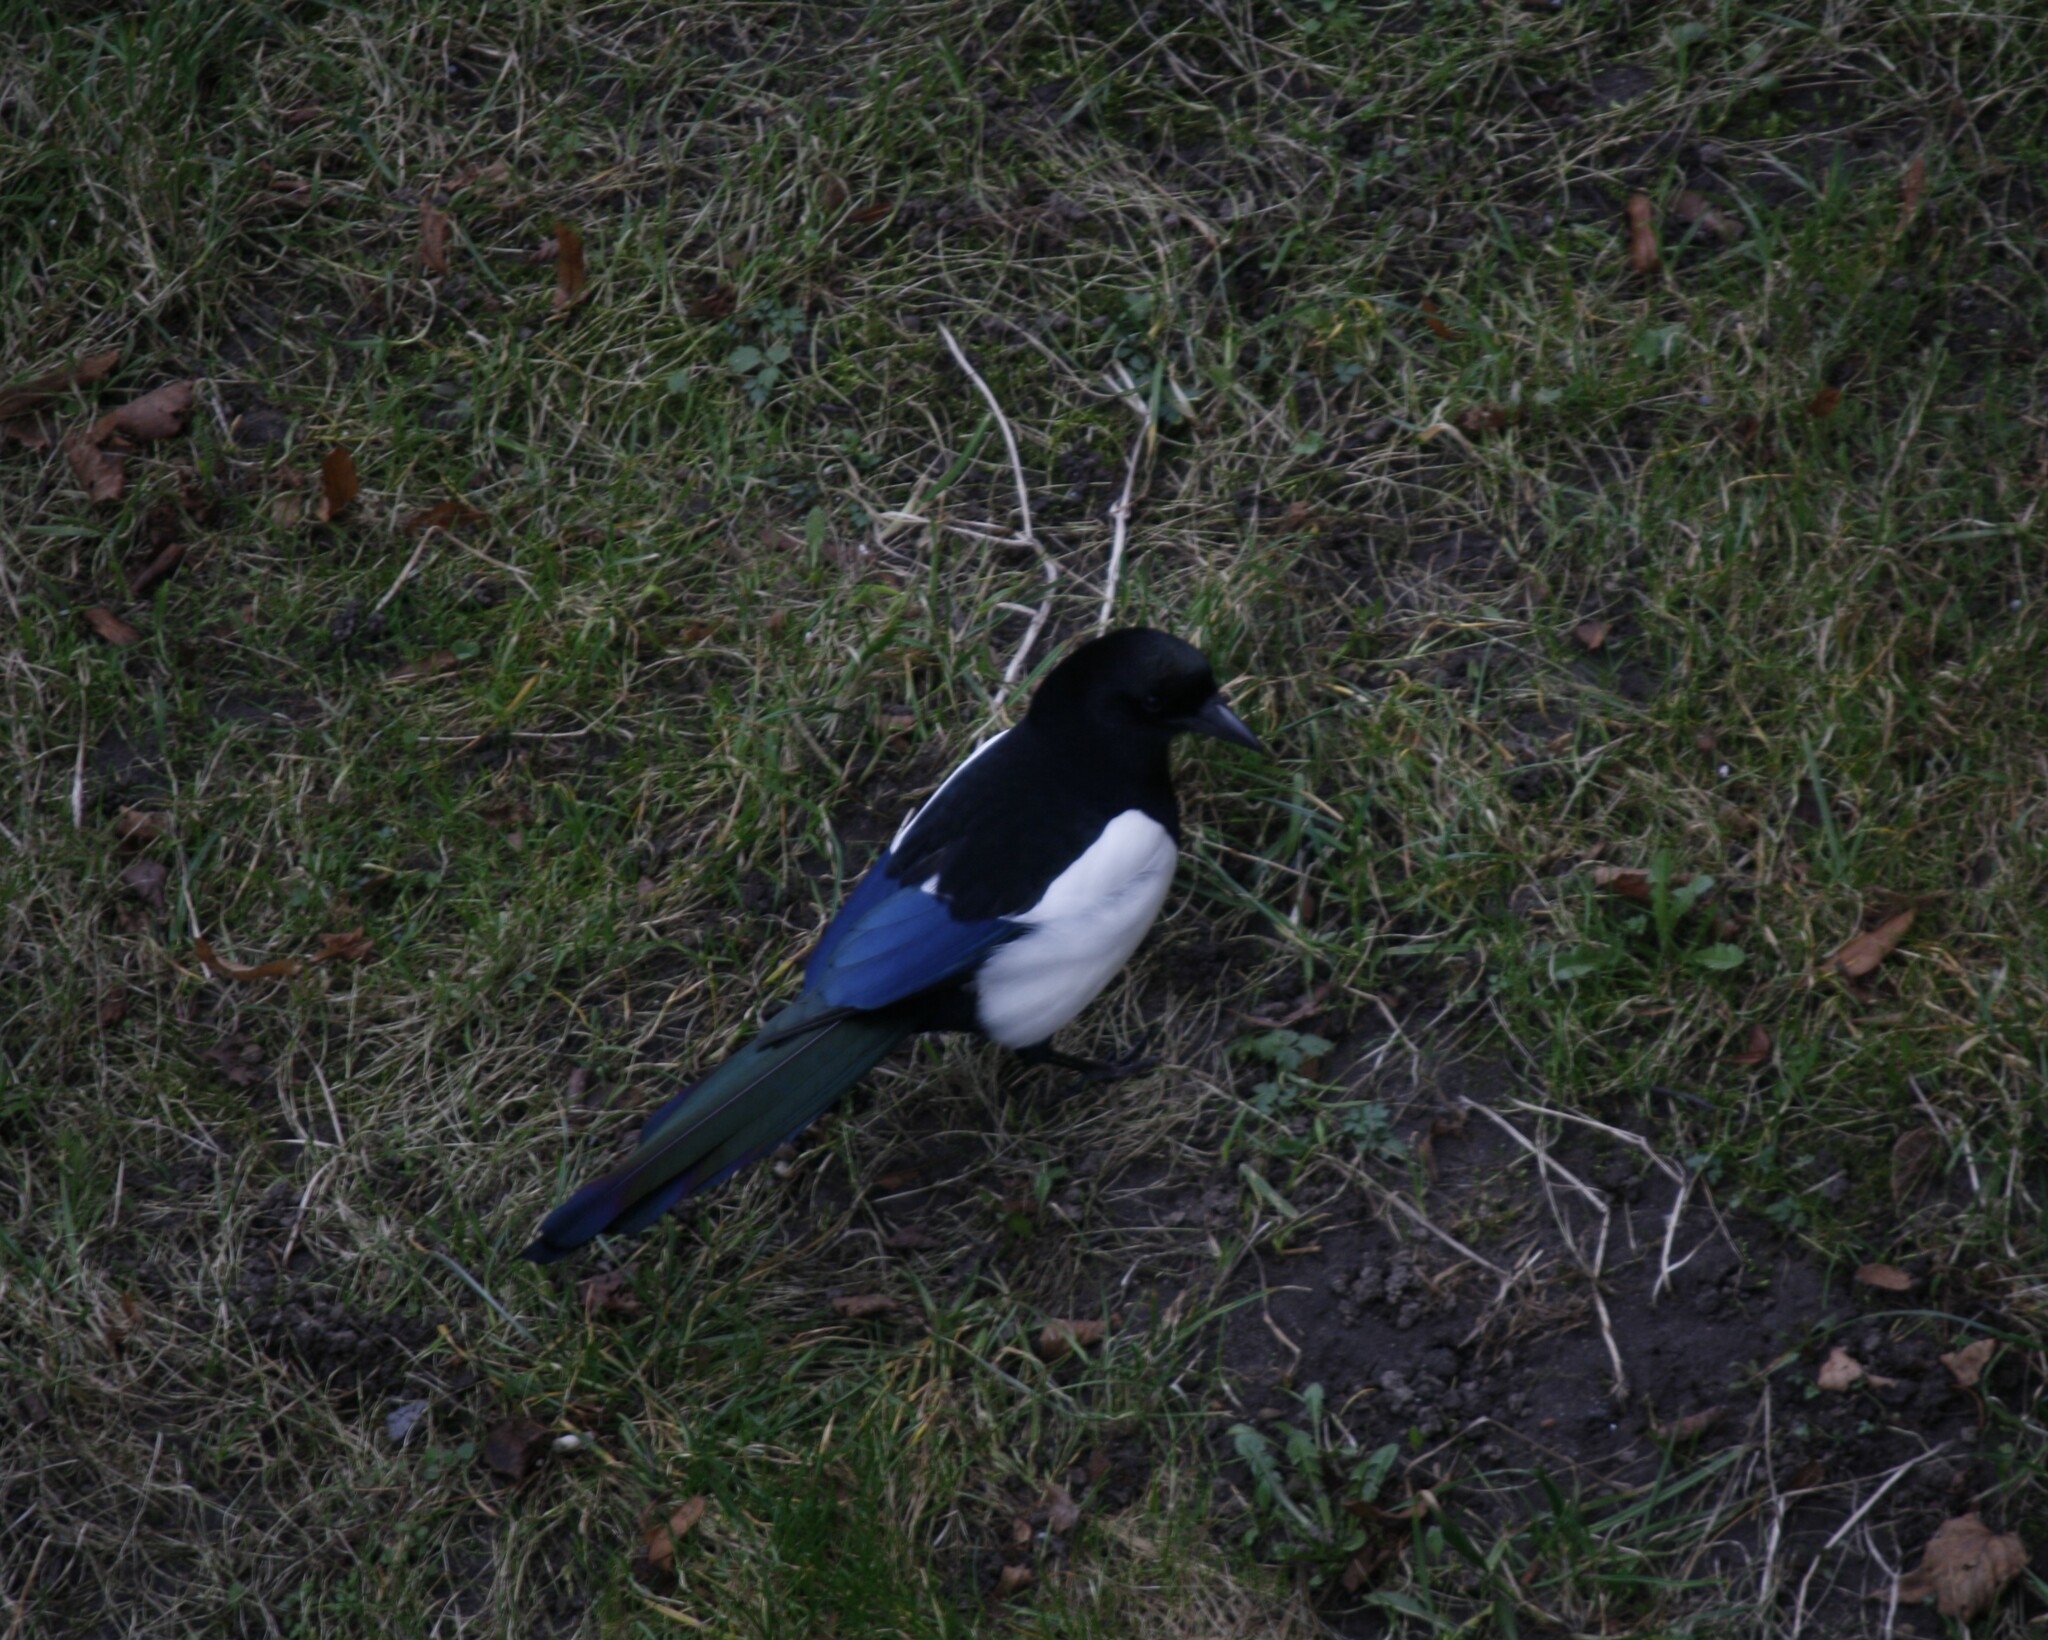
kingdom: Animalia
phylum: Chordata
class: Aves
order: Passeriformes
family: Corvidae
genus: Pica
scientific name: Pica pica
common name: Eurasian magpie
